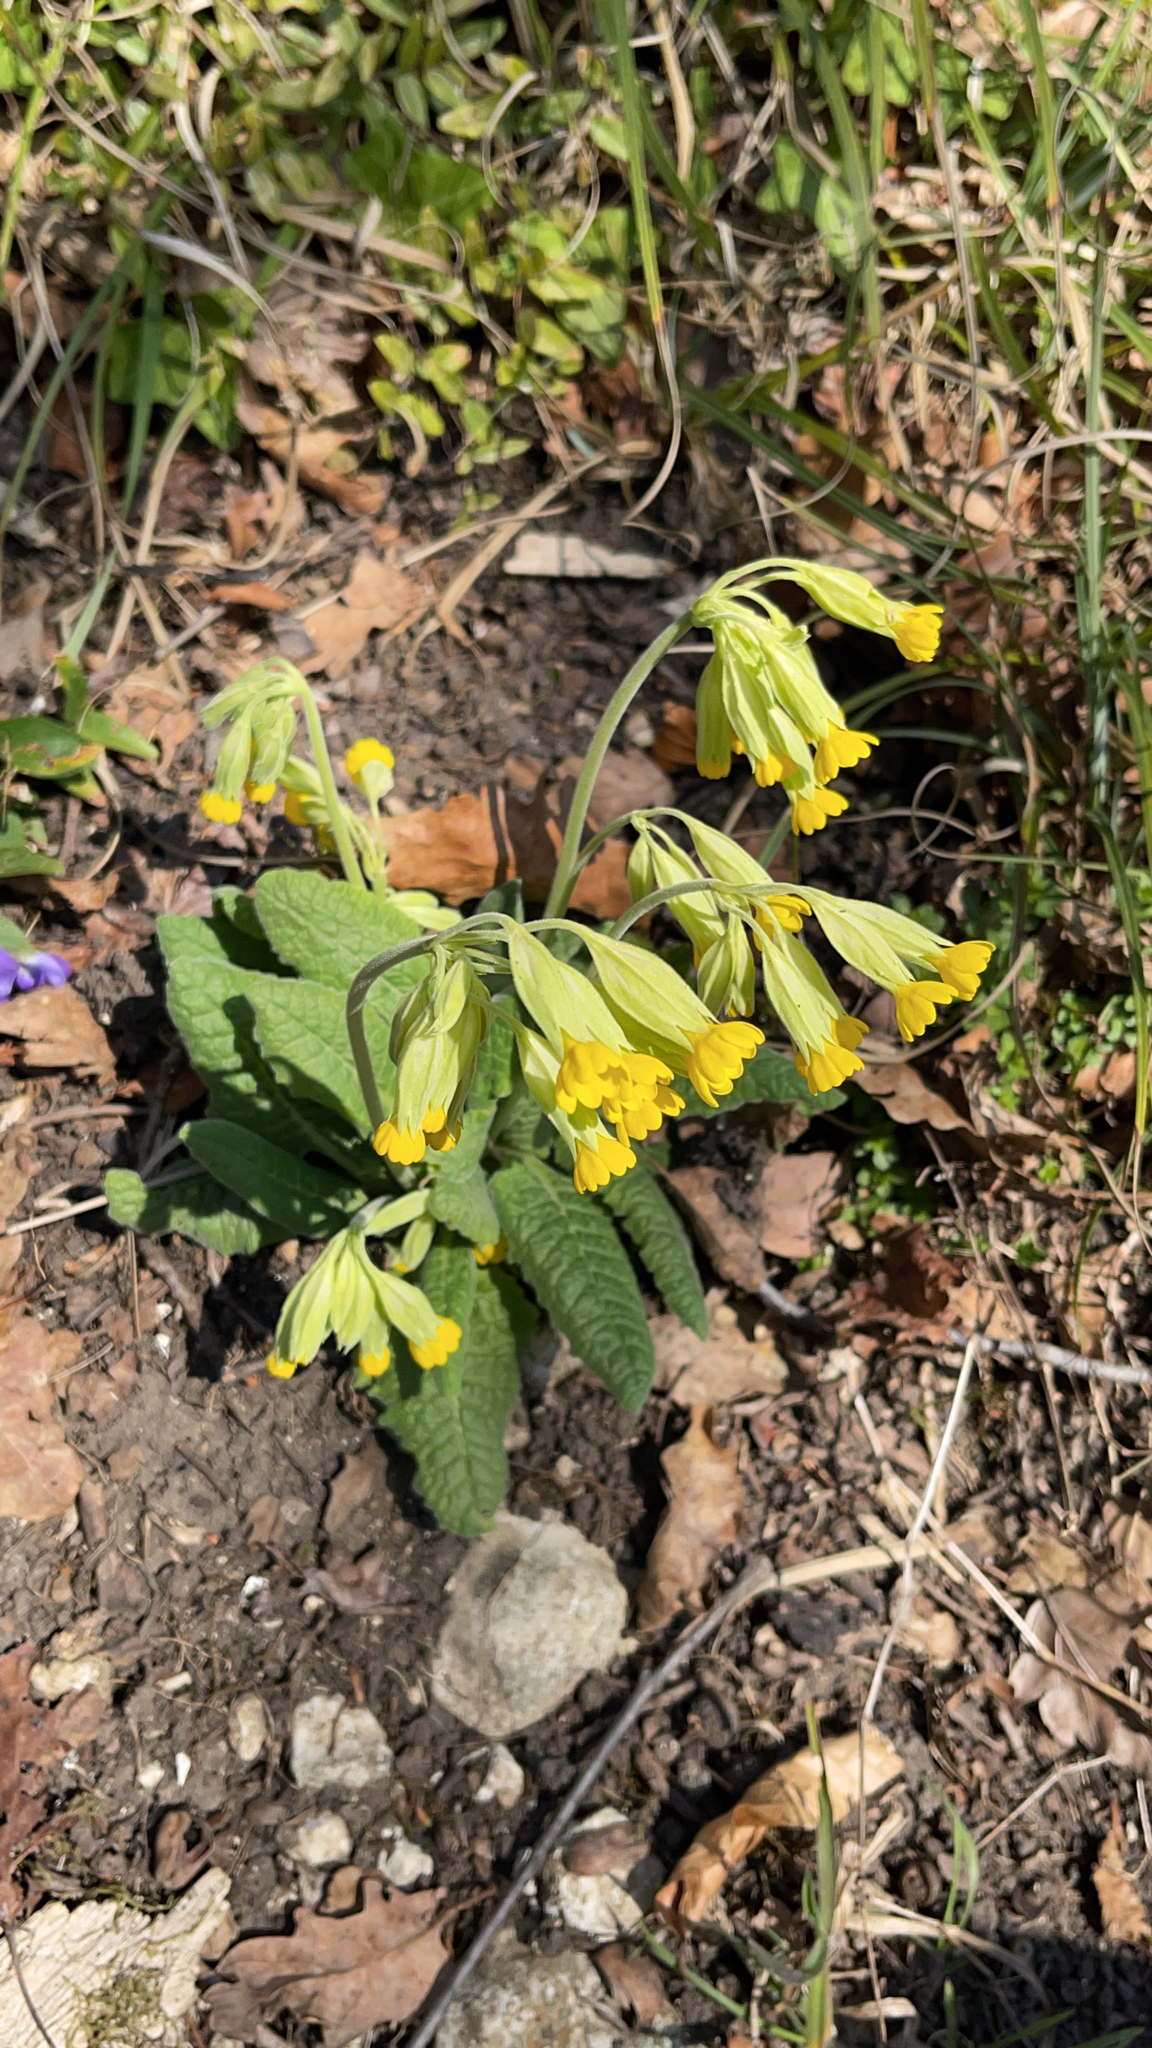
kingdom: Plantae
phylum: Tracheophyta
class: Magnoliopsida
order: Ericales
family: Primulaceae
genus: Primula
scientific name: Primula veris
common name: Cowslip
